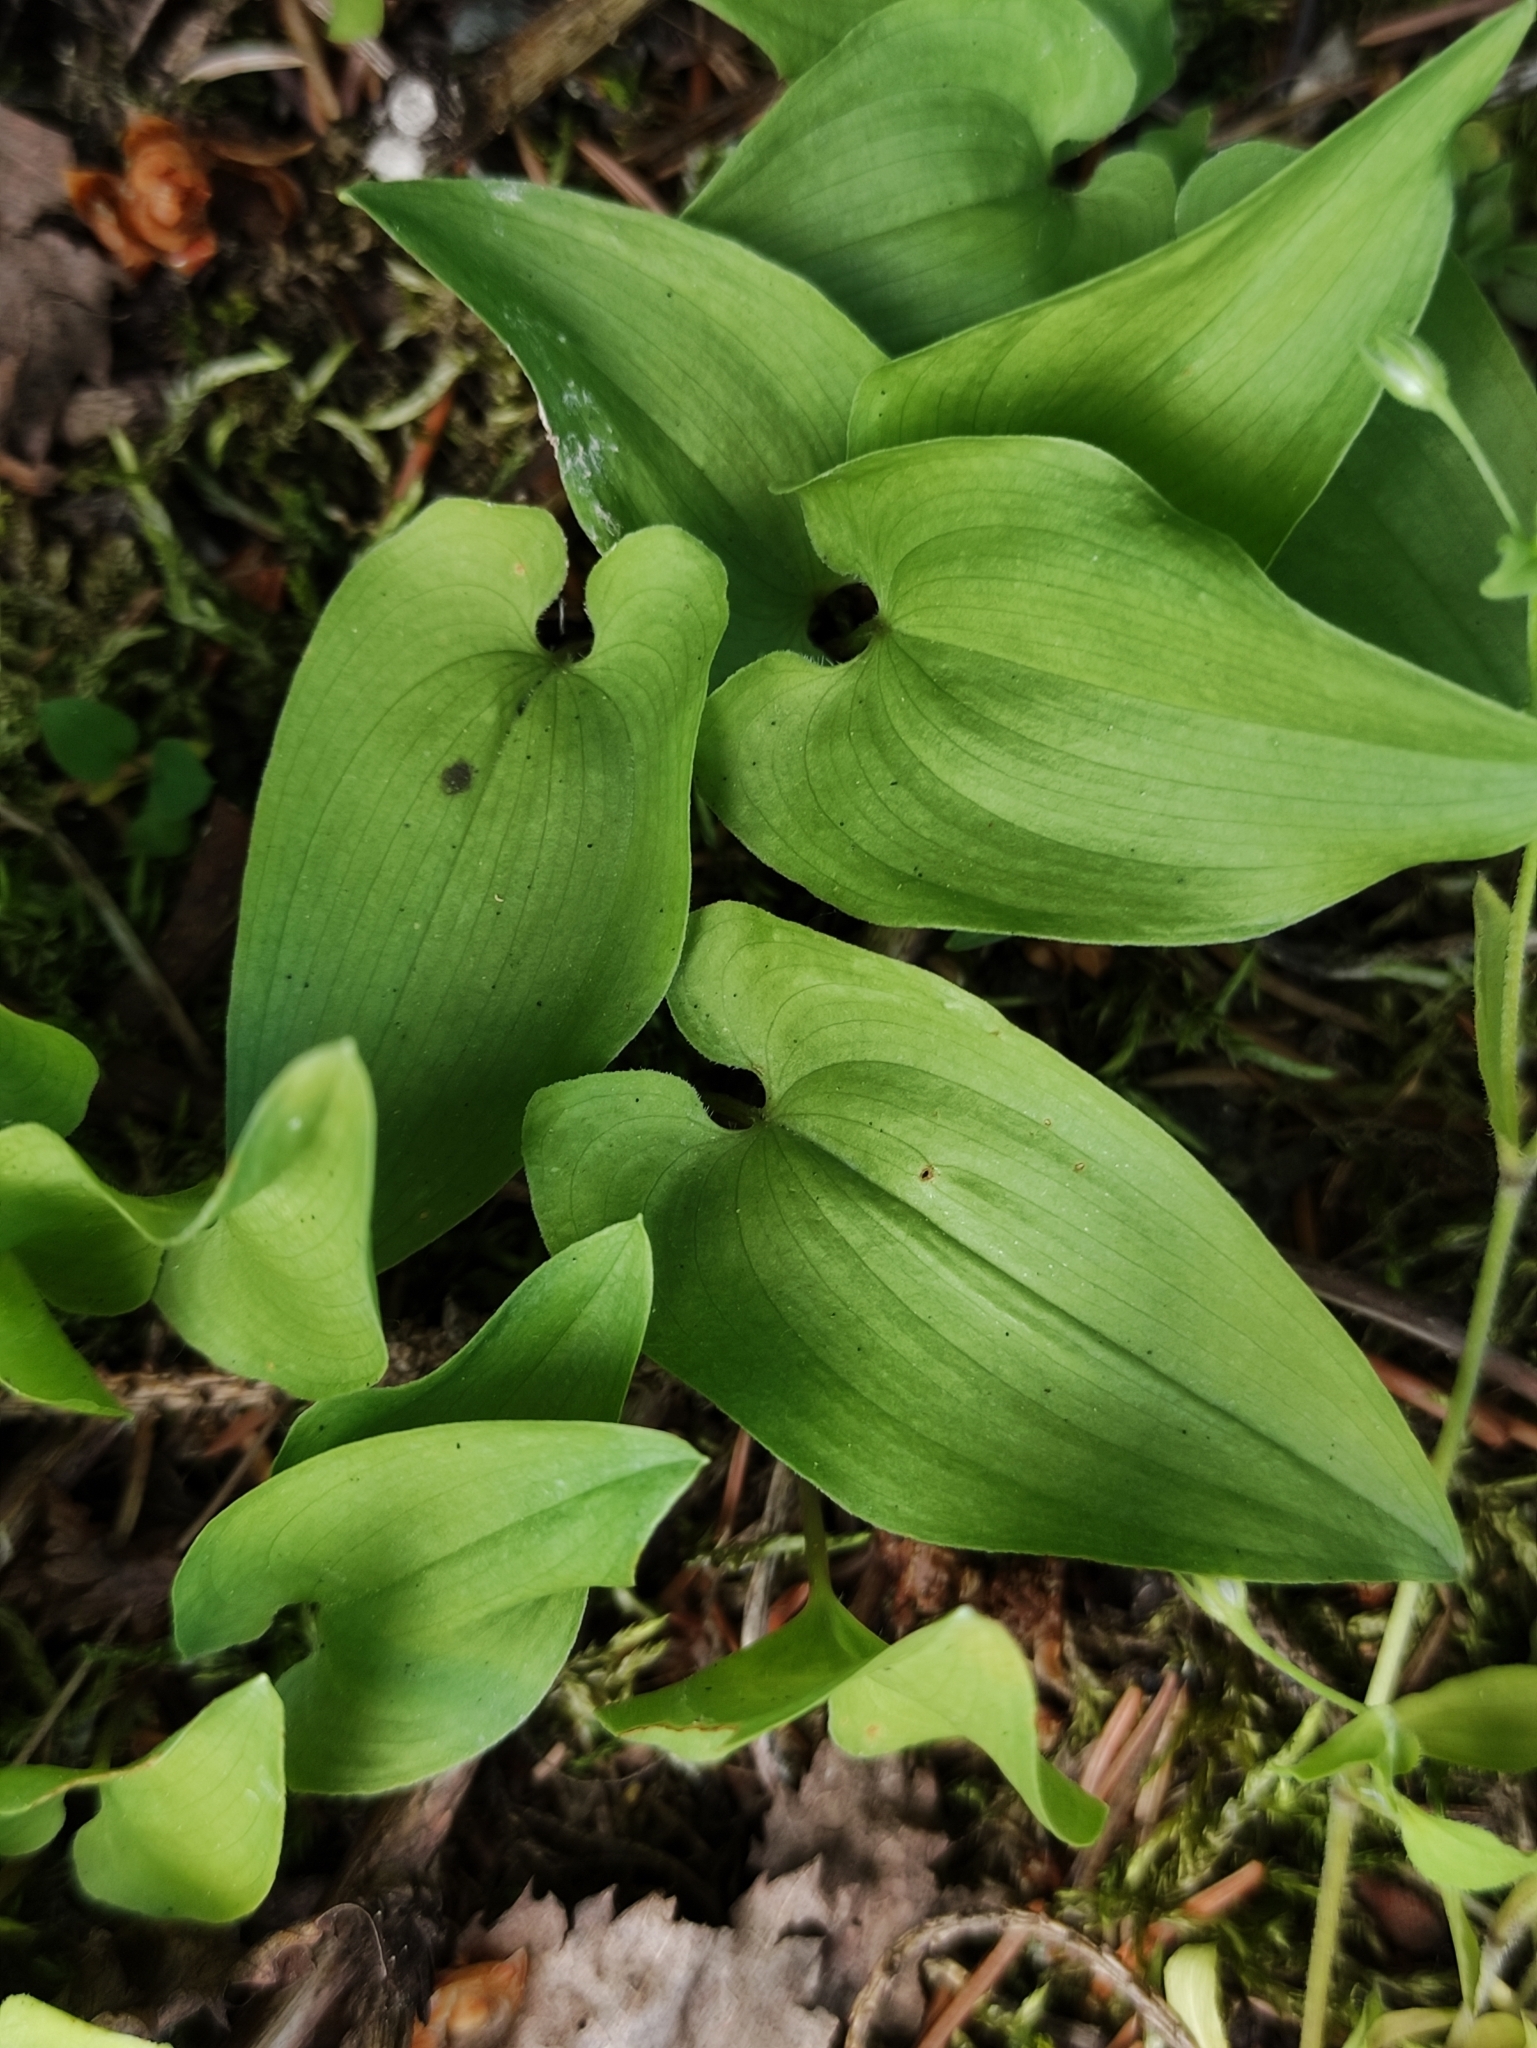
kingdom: Plantae
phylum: Tracheophyta
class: Liliopsida
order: Asparagales
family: Asparagaceae
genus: Maianthemum
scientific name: Maianthemum bifolium
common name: May lily
